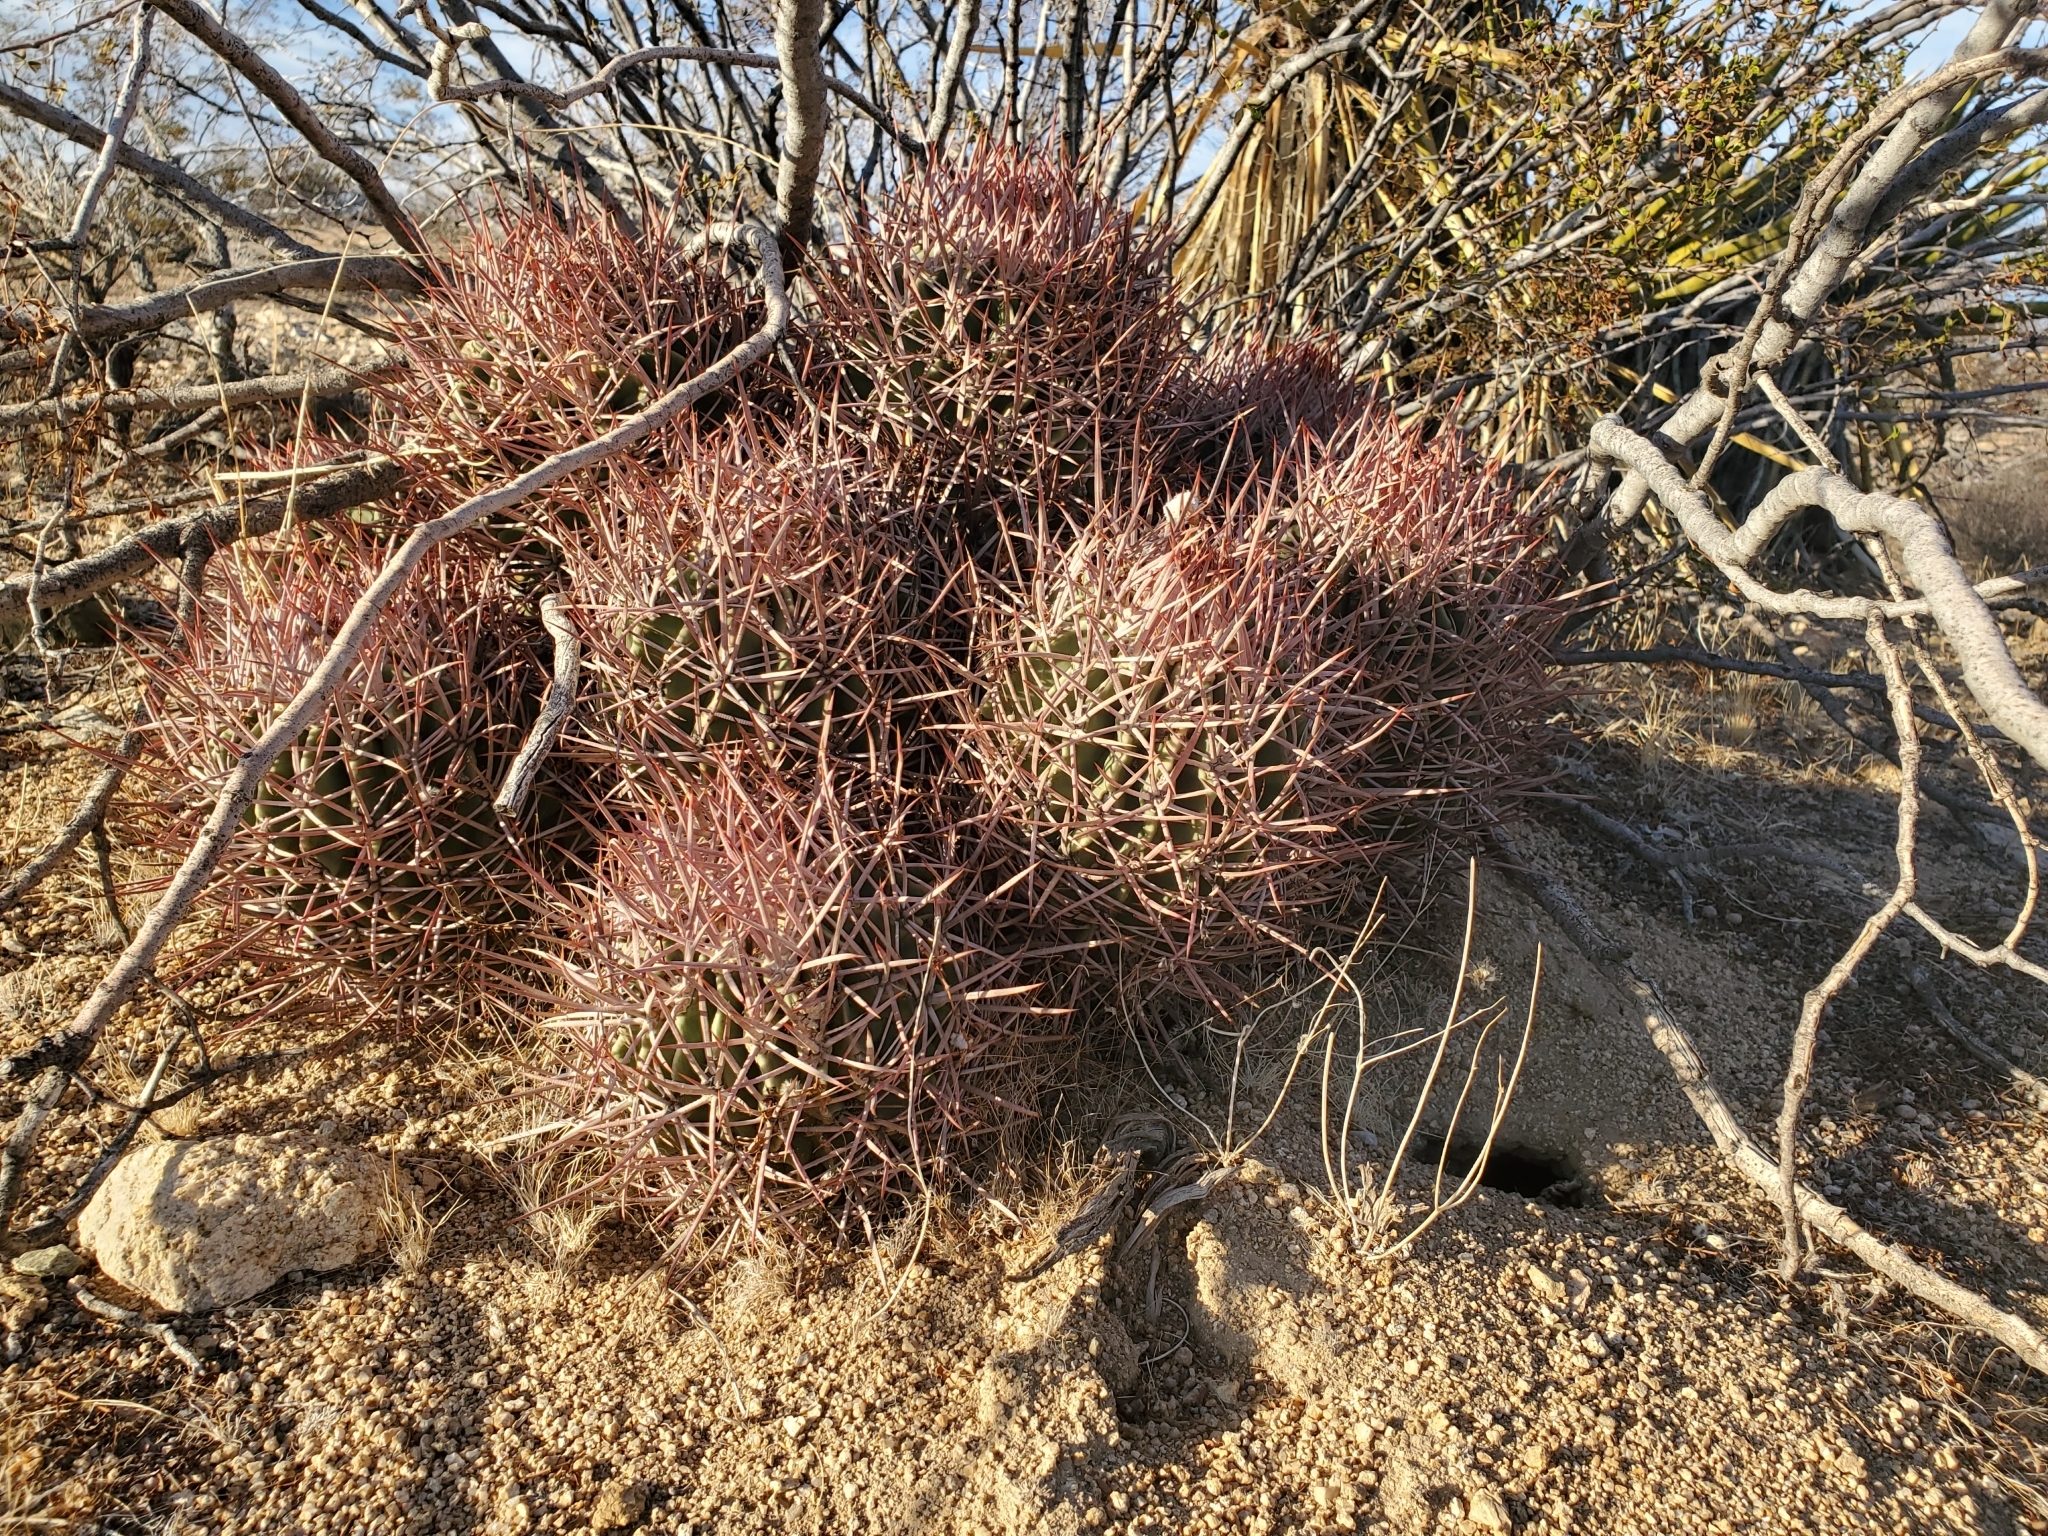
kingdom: Plantae
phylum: Tracheophyta
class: Magnoliopsida
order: Caryophyllales
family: Cactaceae
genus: Echinocactus
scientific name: Echinocactus polycephalus
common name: Cottontop cactus
